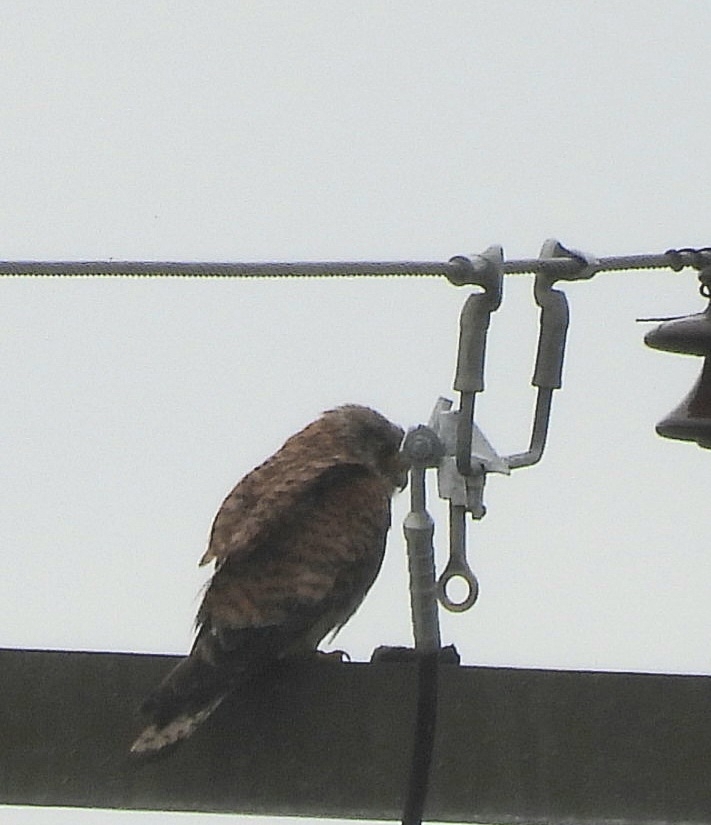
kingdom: Animalia
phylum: Chordata
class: Aves
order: Falconiformes
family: Falconidae
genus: Falco
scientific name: Falco tinnunculus
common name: Common kestrel
